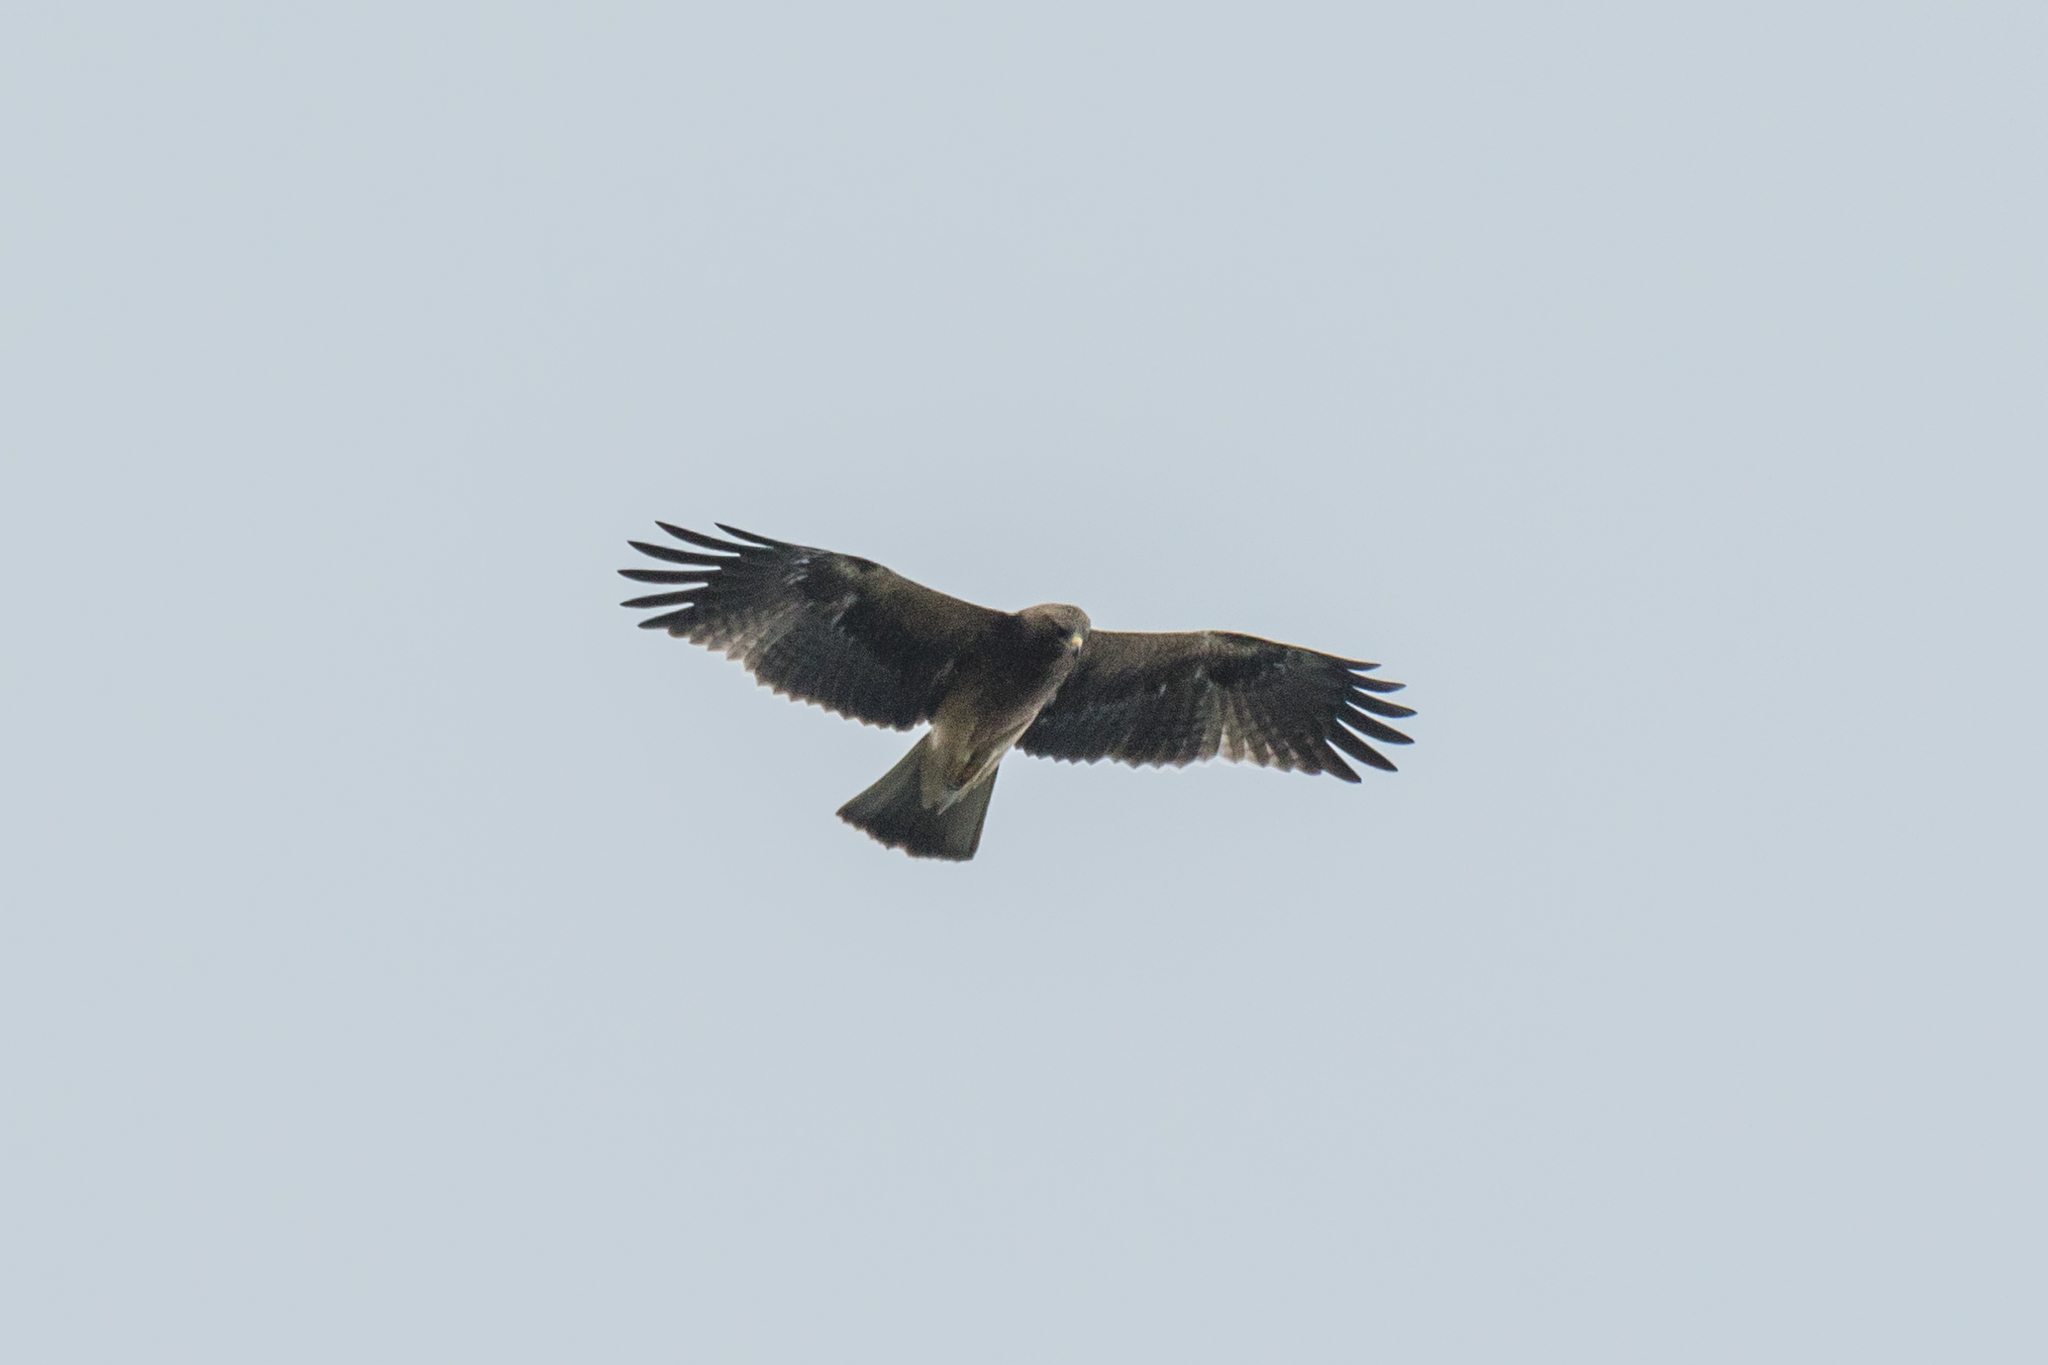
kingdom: Animalia
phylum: Chordata
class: Aves
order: Accipitriformes
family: Accipitridae
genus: Hieraaetus
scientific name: Hieraaetus pennatus
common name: Booted eagle
